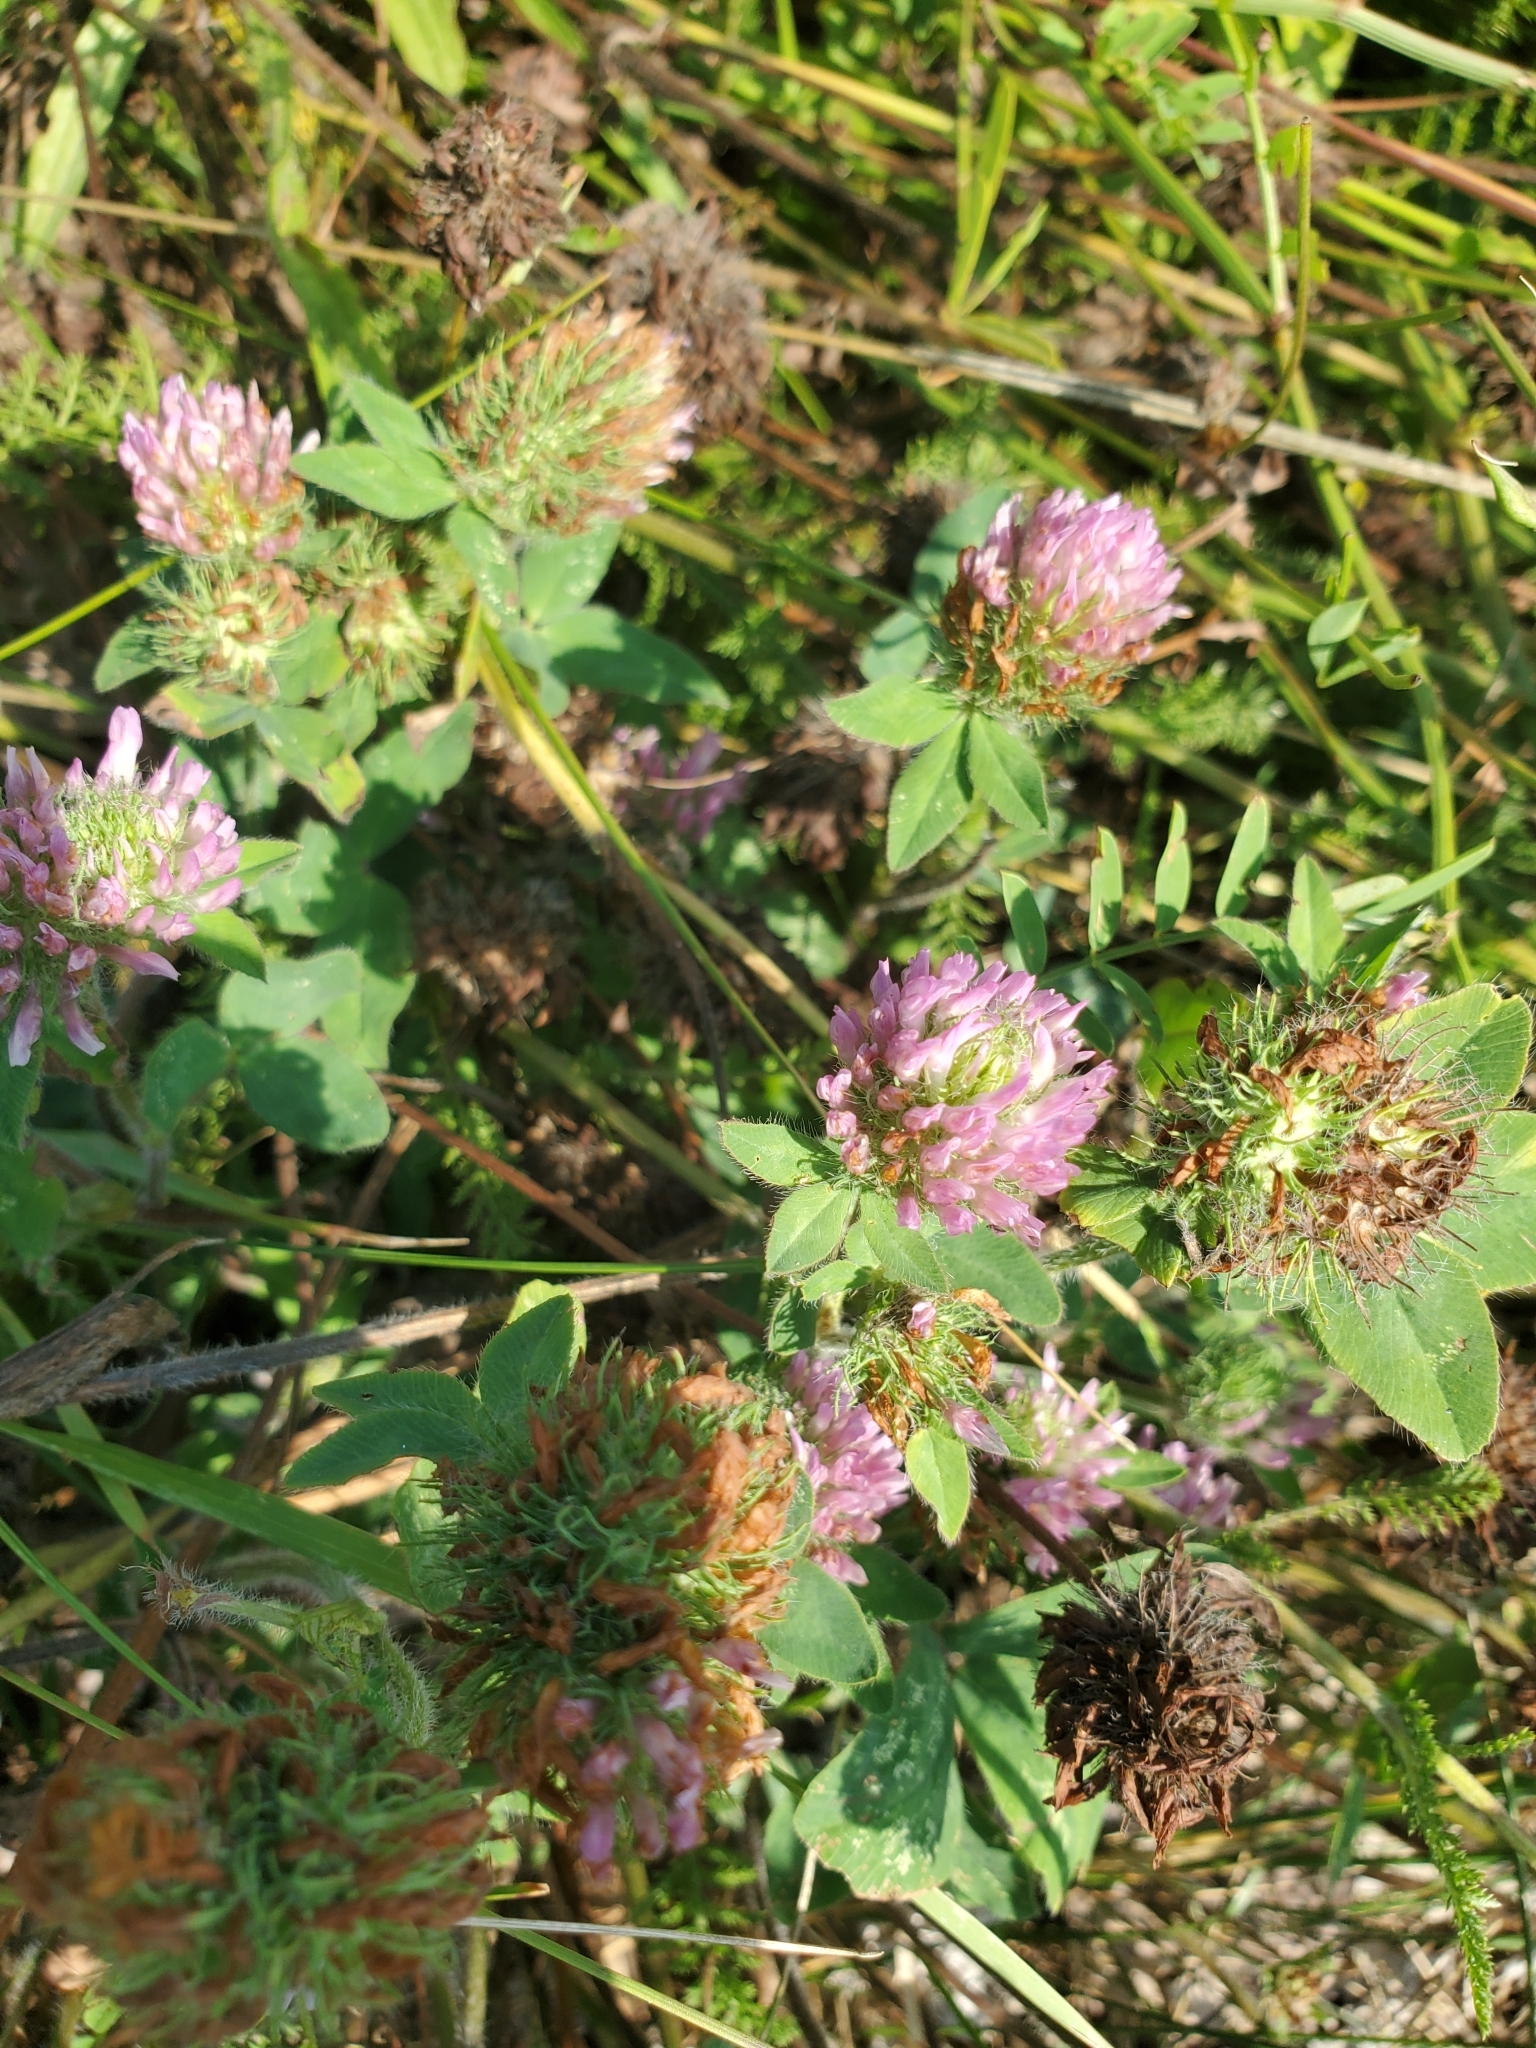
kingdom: Plantae
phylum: Tracheophyta
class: Magnoliopsida
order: Fabales
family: Fabaceae
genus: Trifolium
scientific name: Trifolium pratense
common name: Red clover
